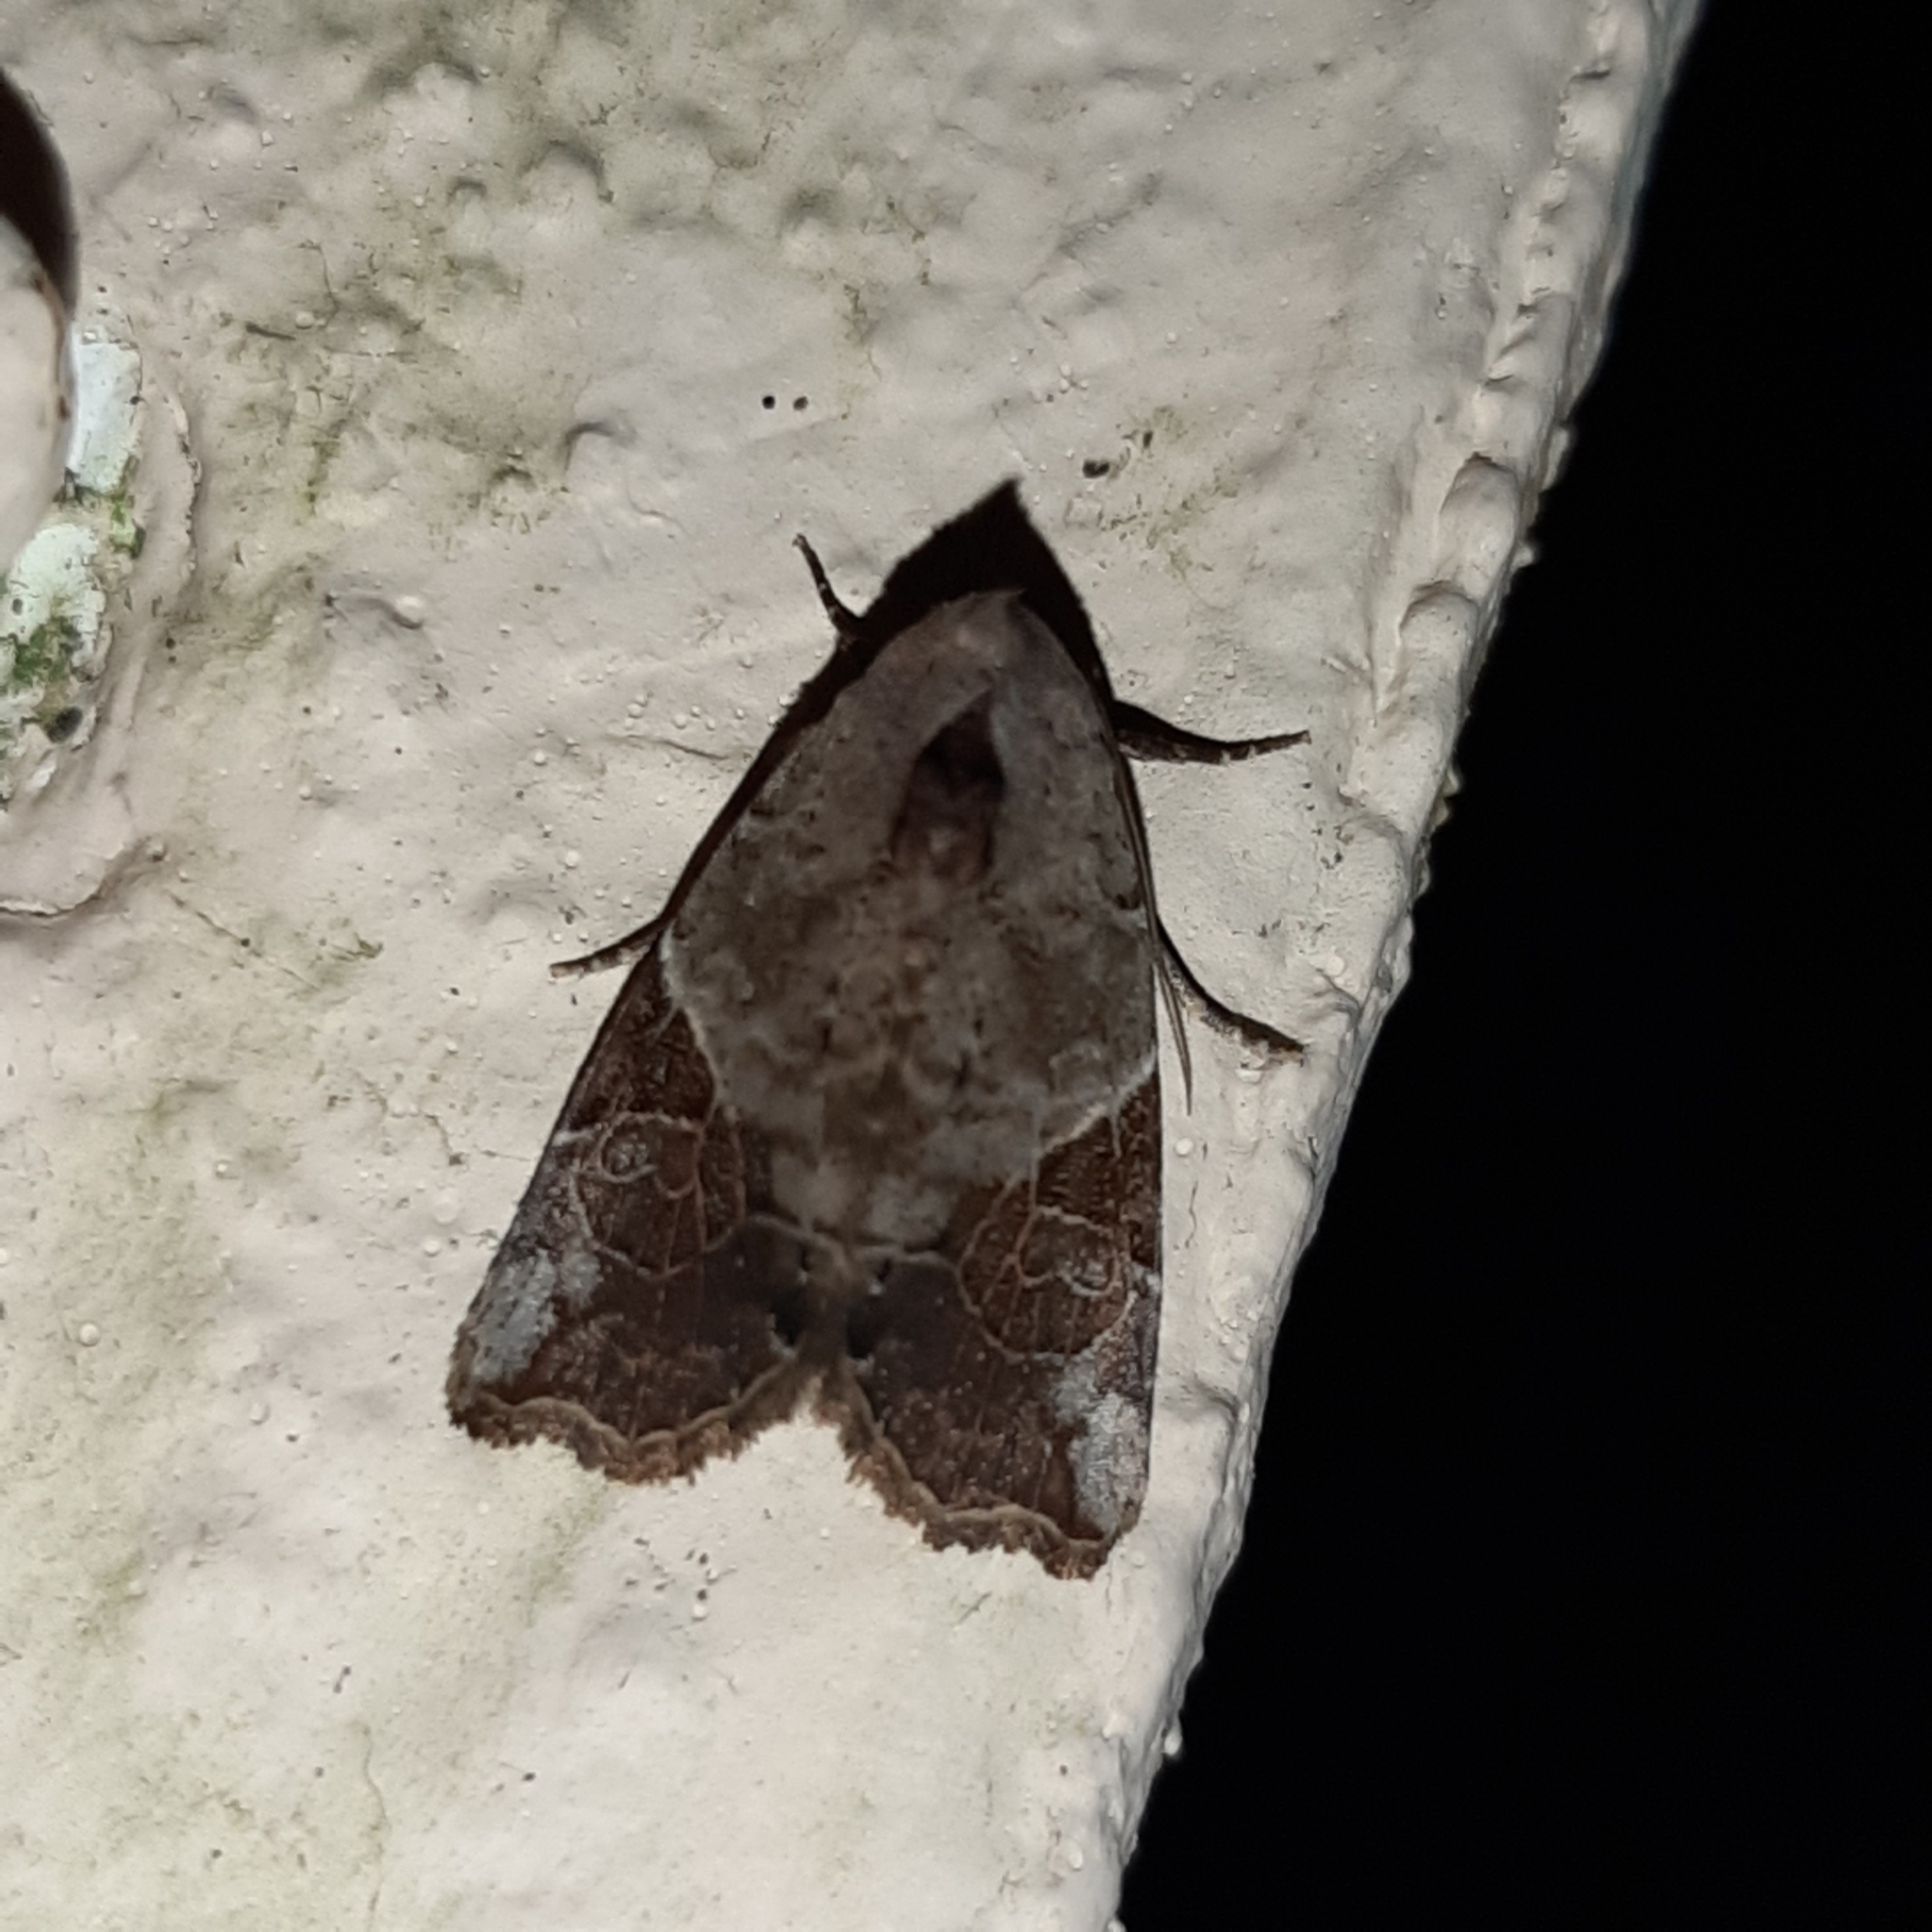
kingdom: Animalia
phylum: Arthropoda
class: Insecta
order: Lepidoptera
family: Noctuidae
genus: Gonodes
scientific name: Gonodes liquida
